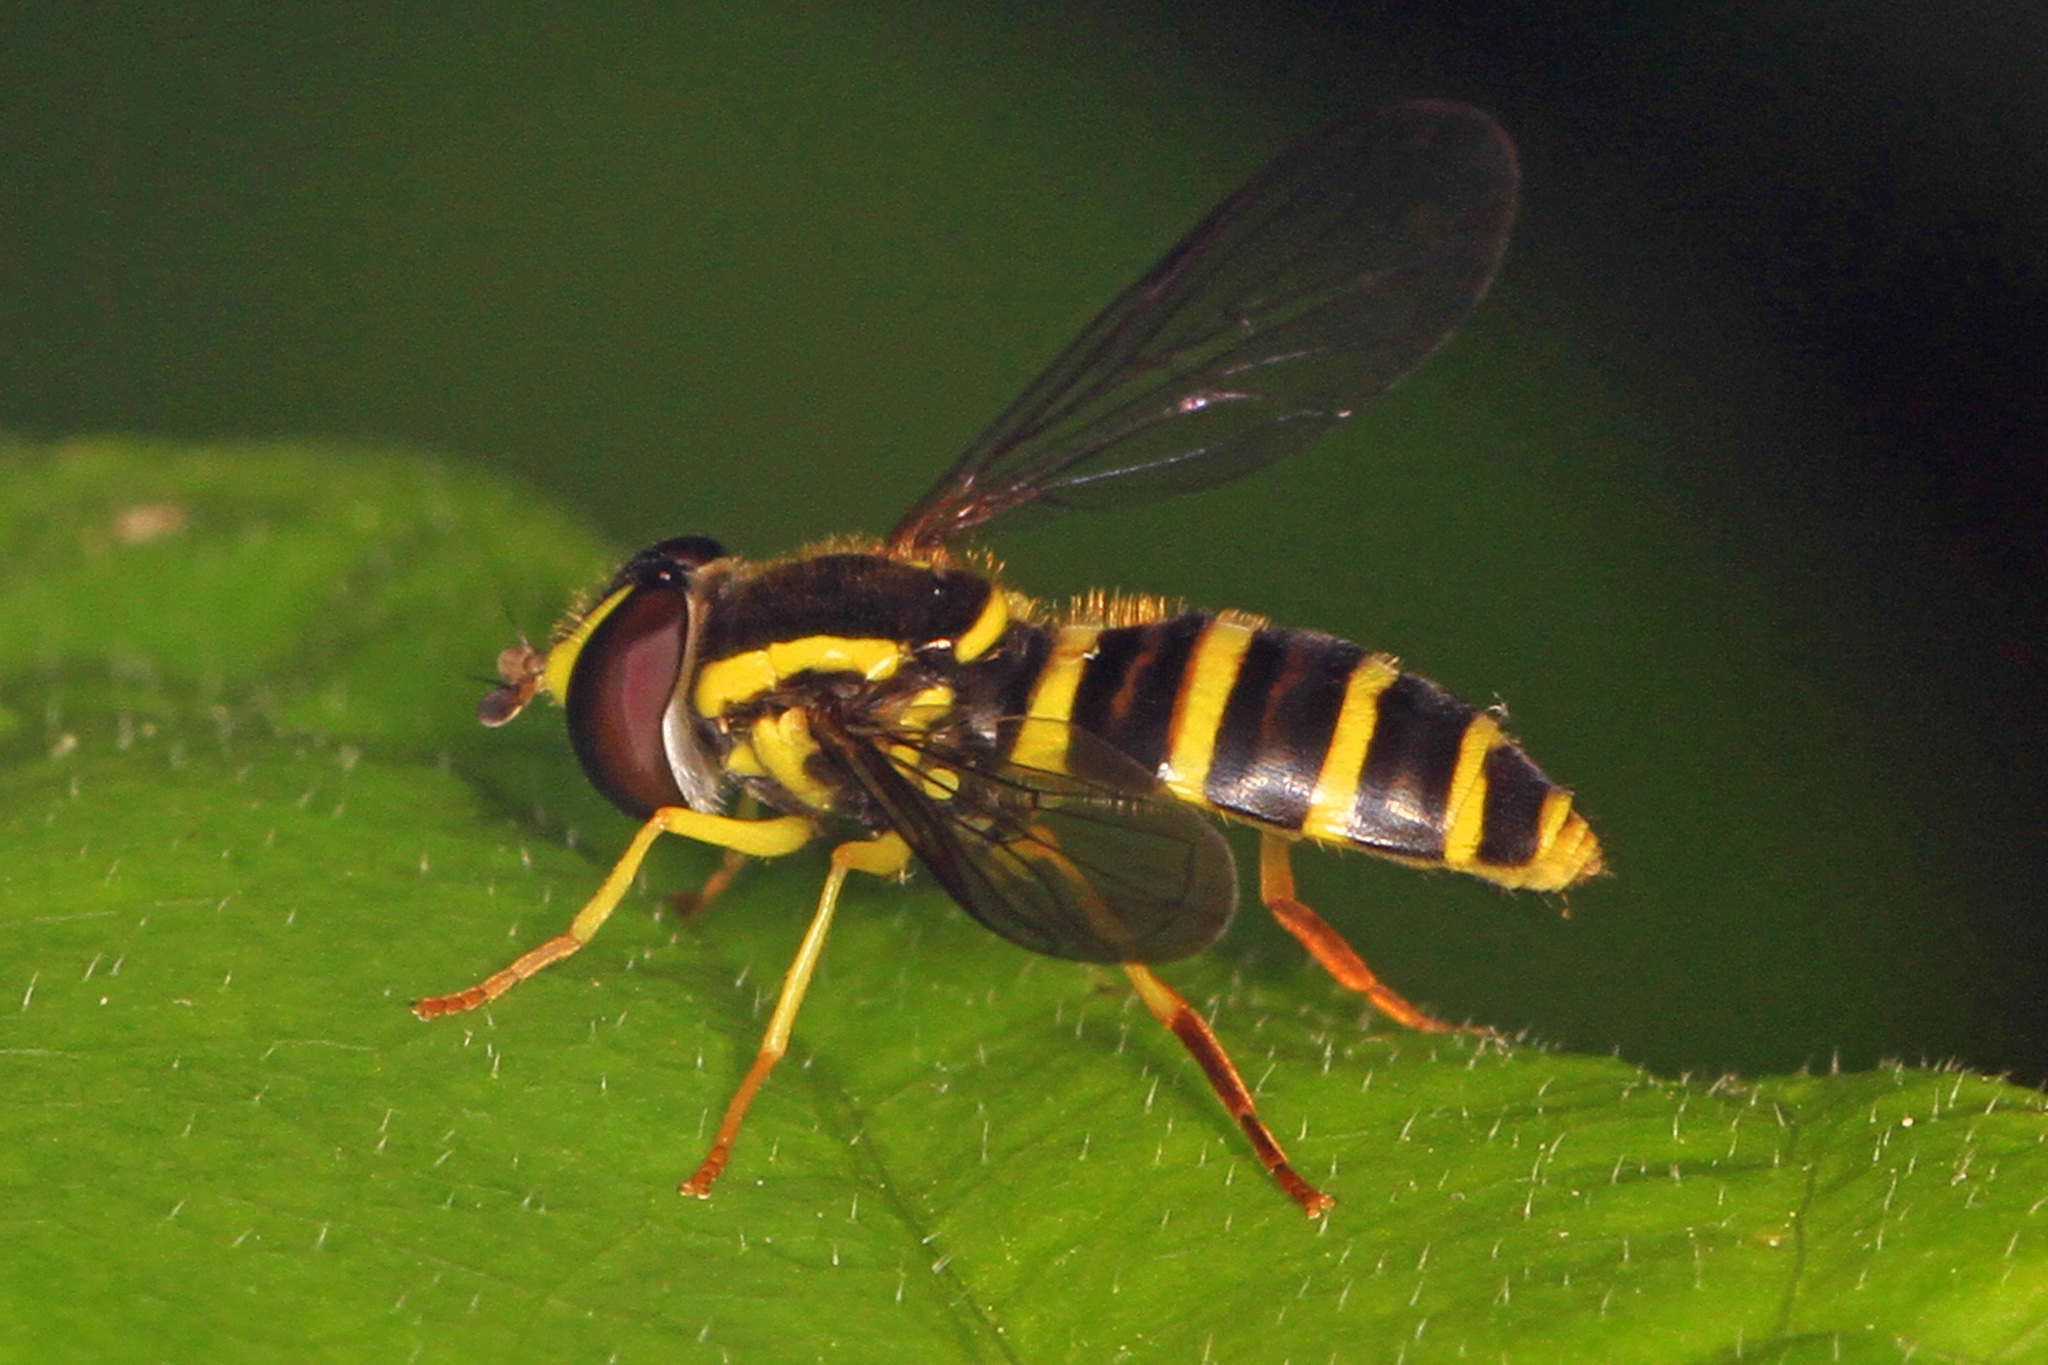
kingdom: Animalia
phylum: Arthropoda
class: Insecta
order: Diptera
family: Syrphidae
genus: Philhelius
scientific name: Philhelius flavipes
